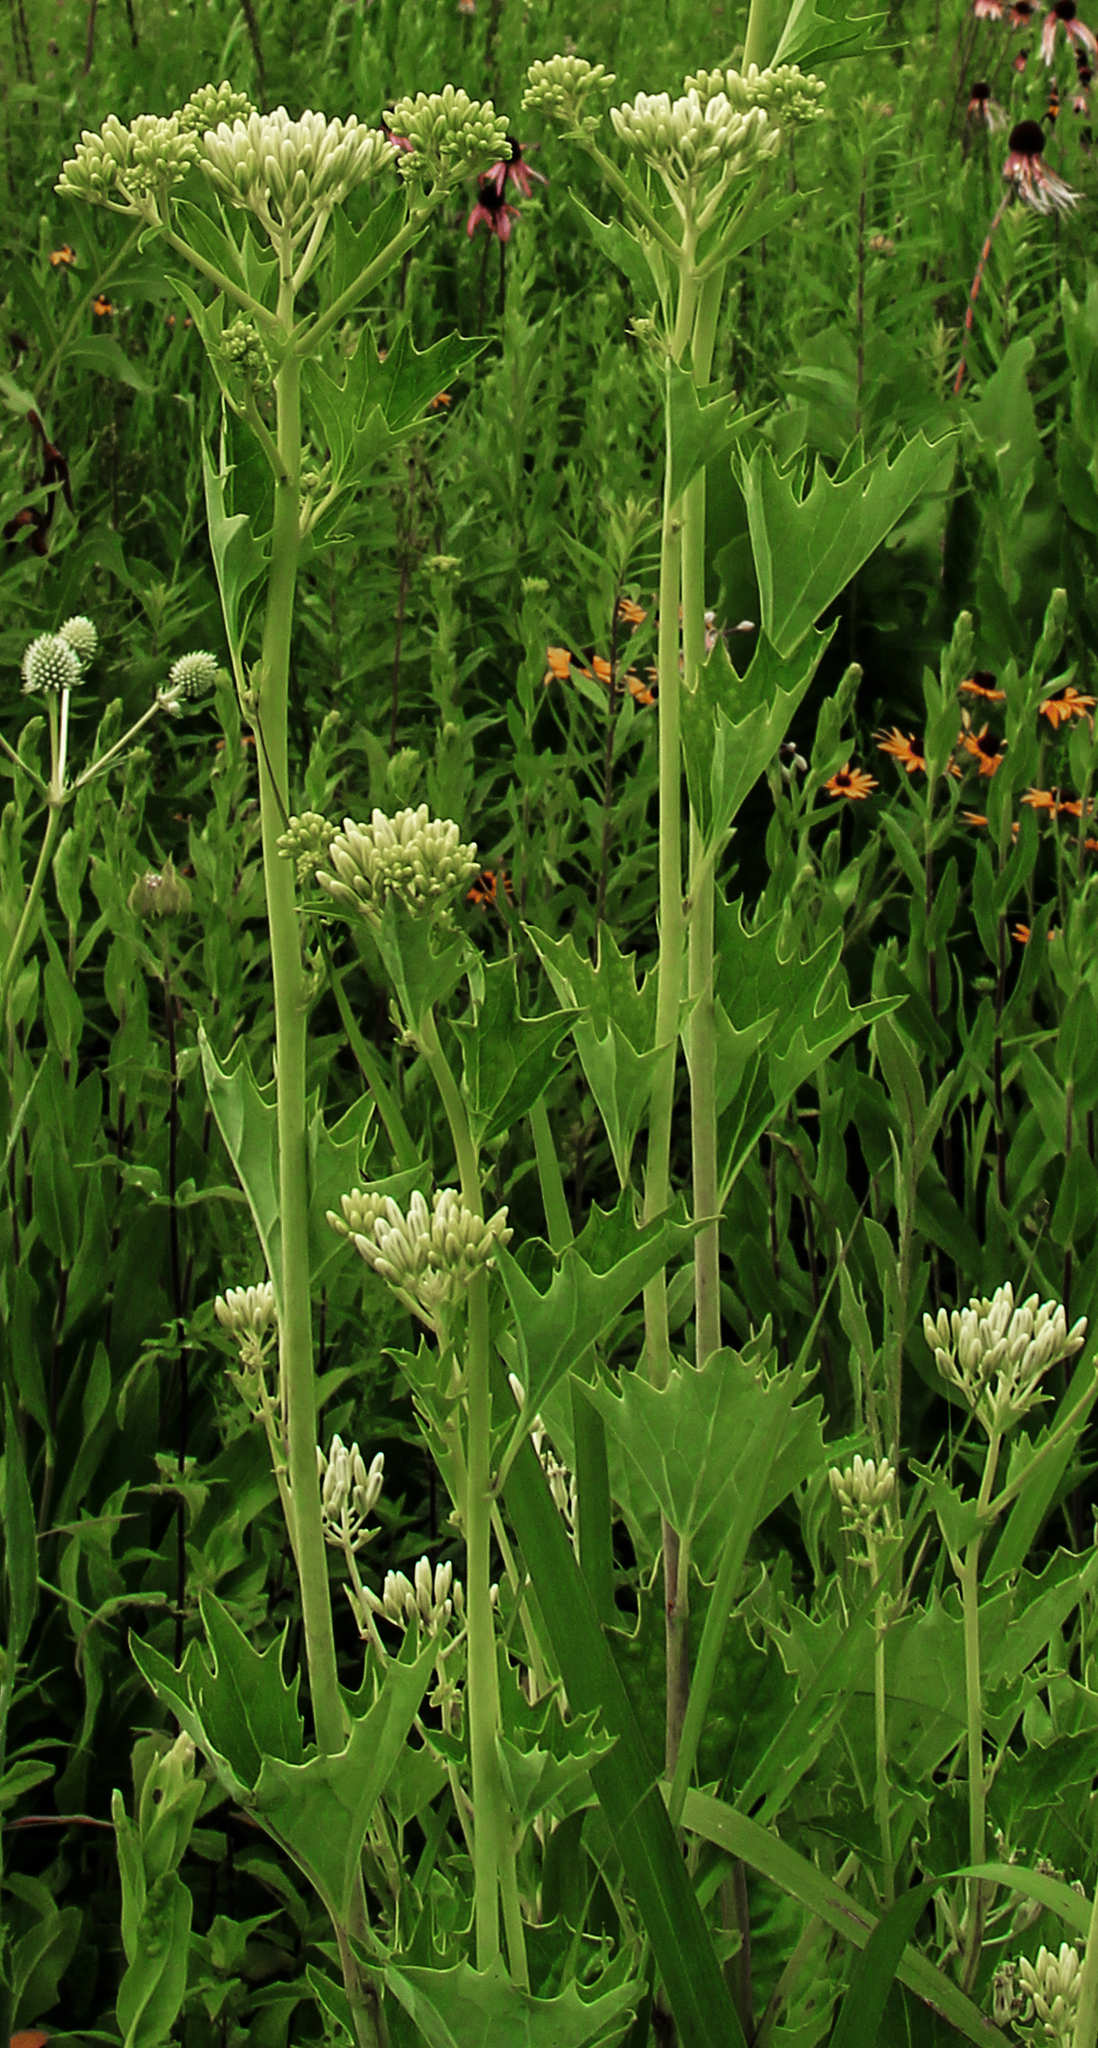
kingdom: Plantae
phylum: Tracheophyta
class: Magnoliopsida
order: Asterales
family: Asteraceae
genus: Arnoglossum
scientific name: Arnoglossum atriplicifolium
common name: Pale indian-plantain
